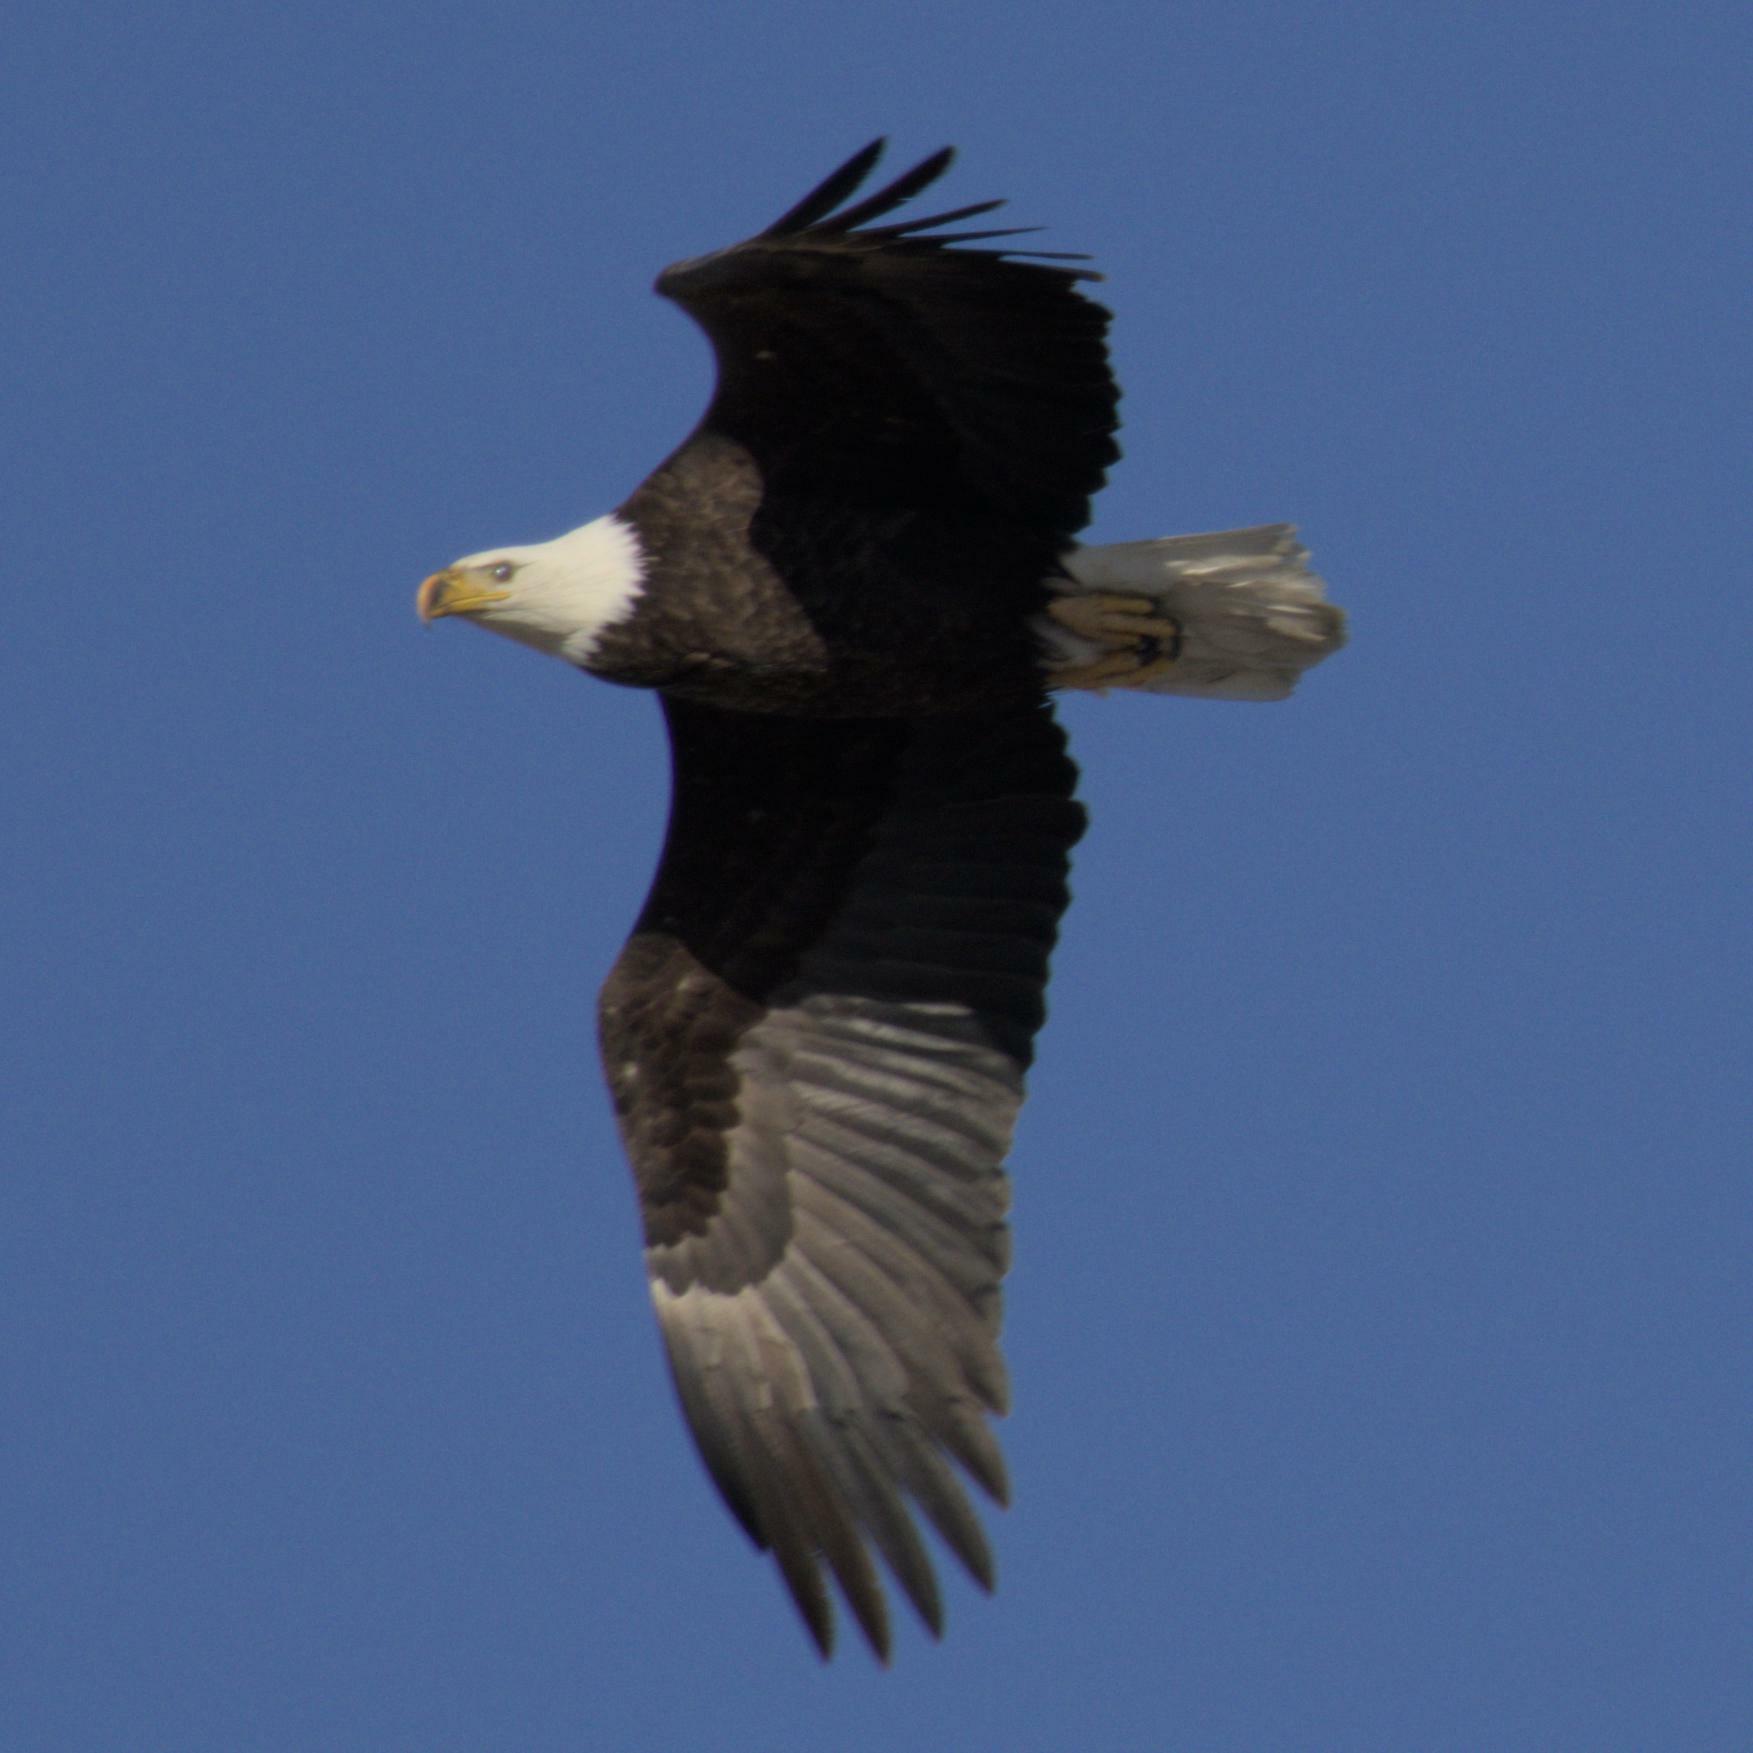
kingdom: Animalia
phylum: Chordata
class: Aves
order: Accipitriformes
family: Accipitridae
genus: Haliaeetus
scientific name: Haliaeetus leucocephalus
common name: Bald eagle
